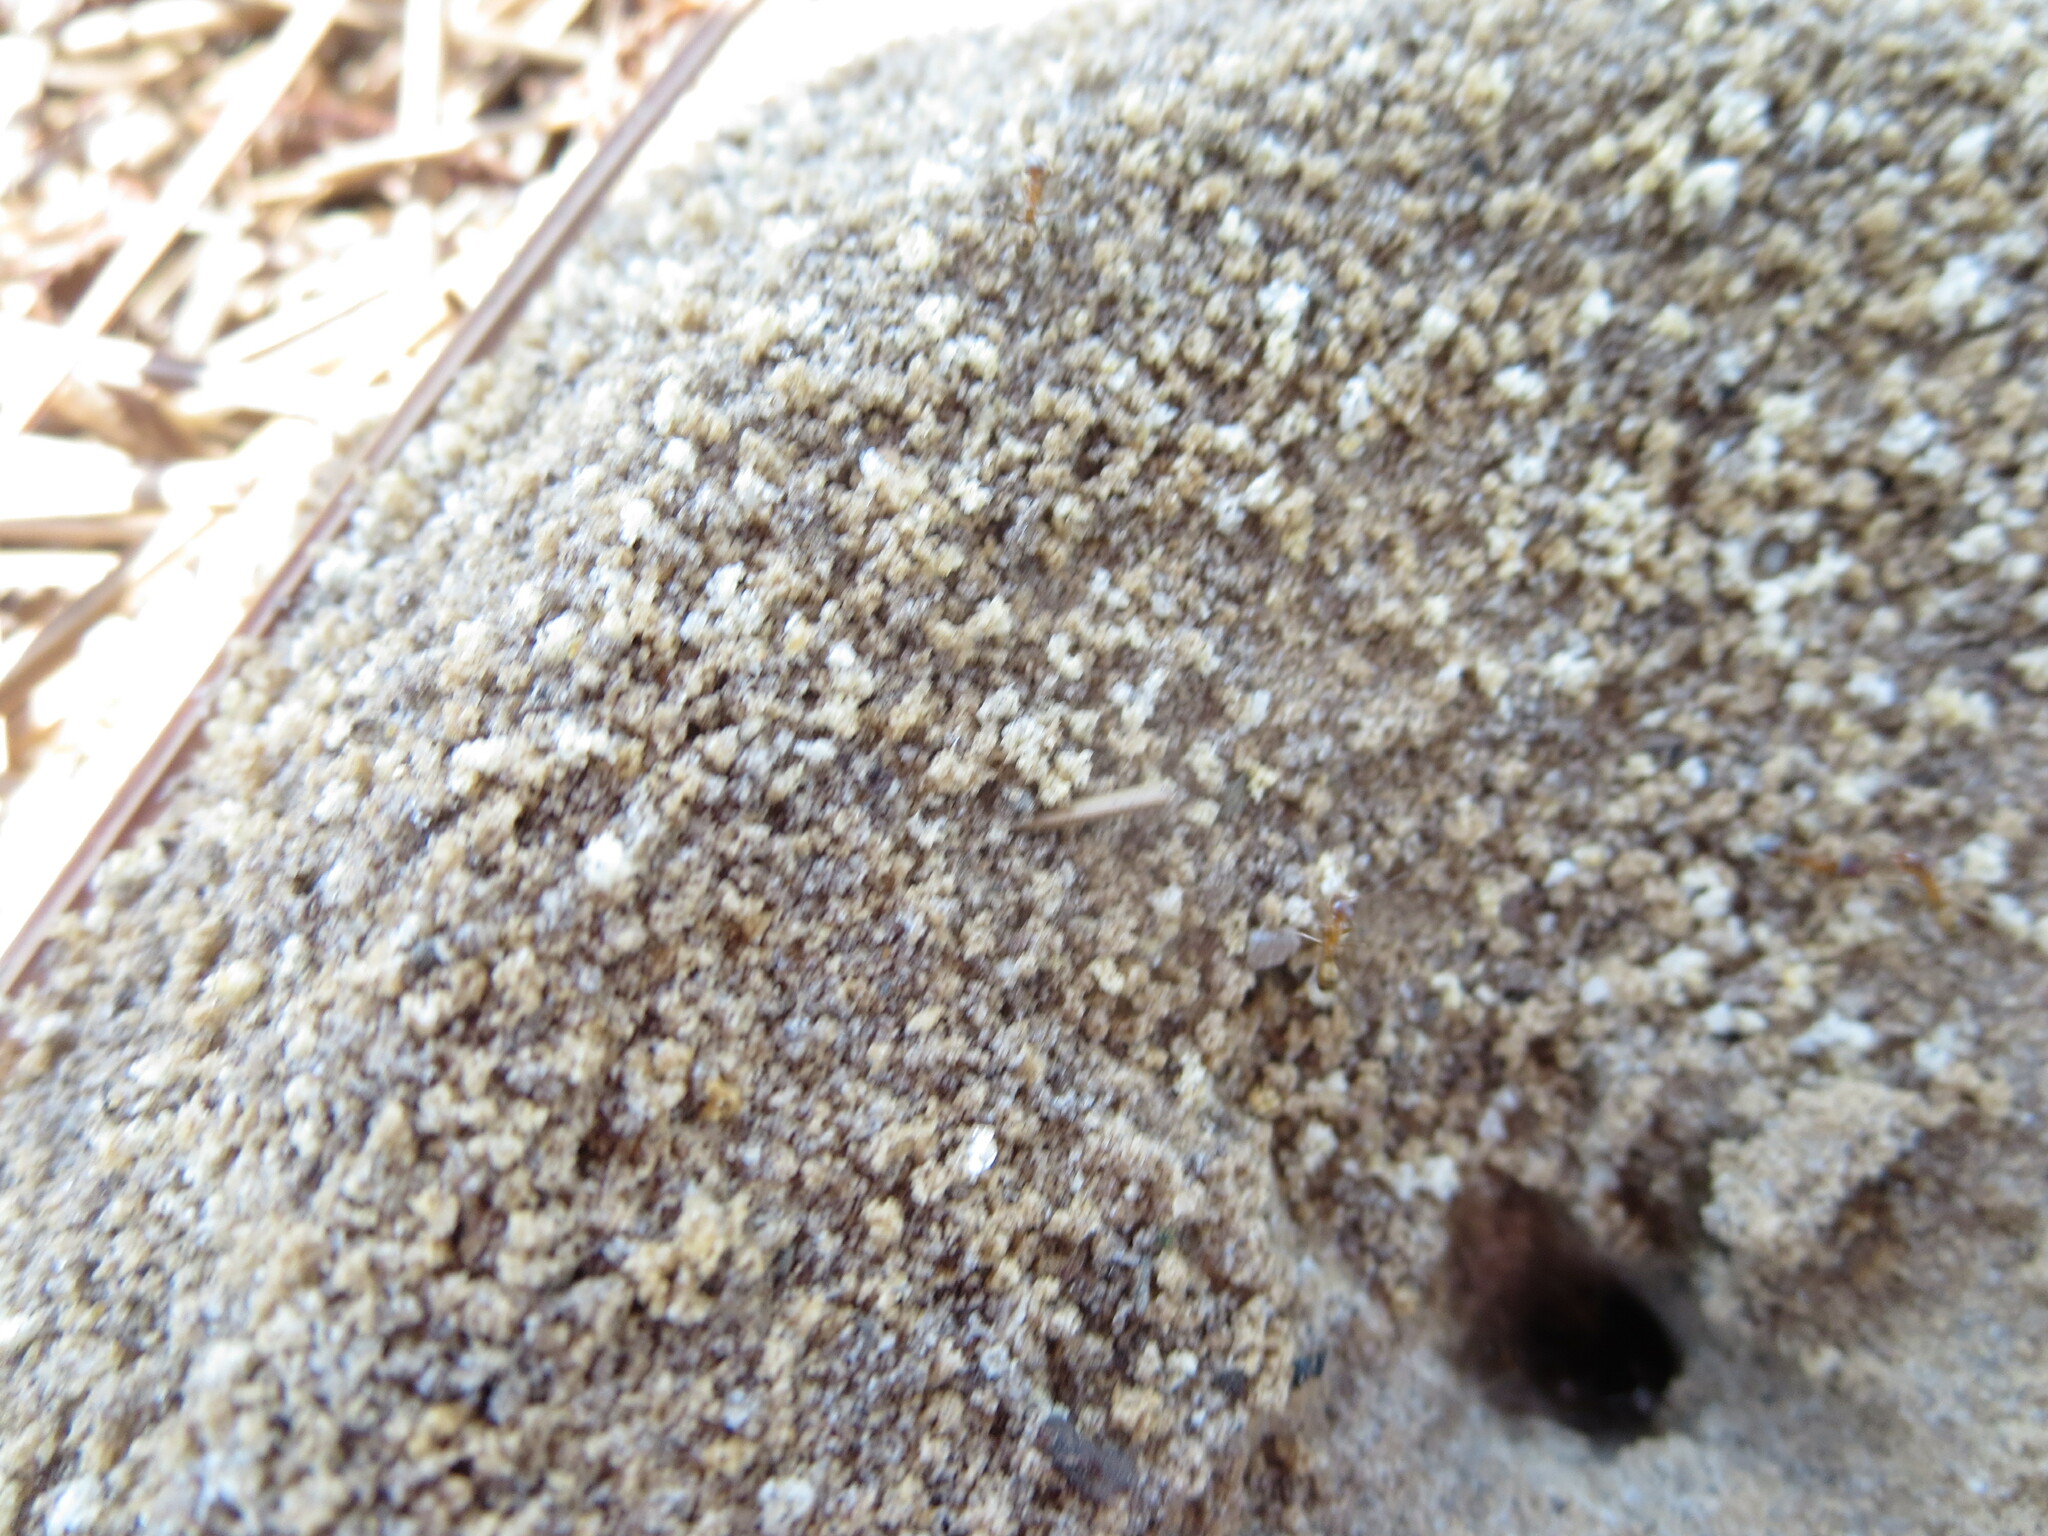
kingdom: Animalia
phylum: Arthropoda
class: Insecta
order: Hymenoptera
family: Formicidae
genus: Dorymyrmex
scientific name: Dorymyrmex bureni
